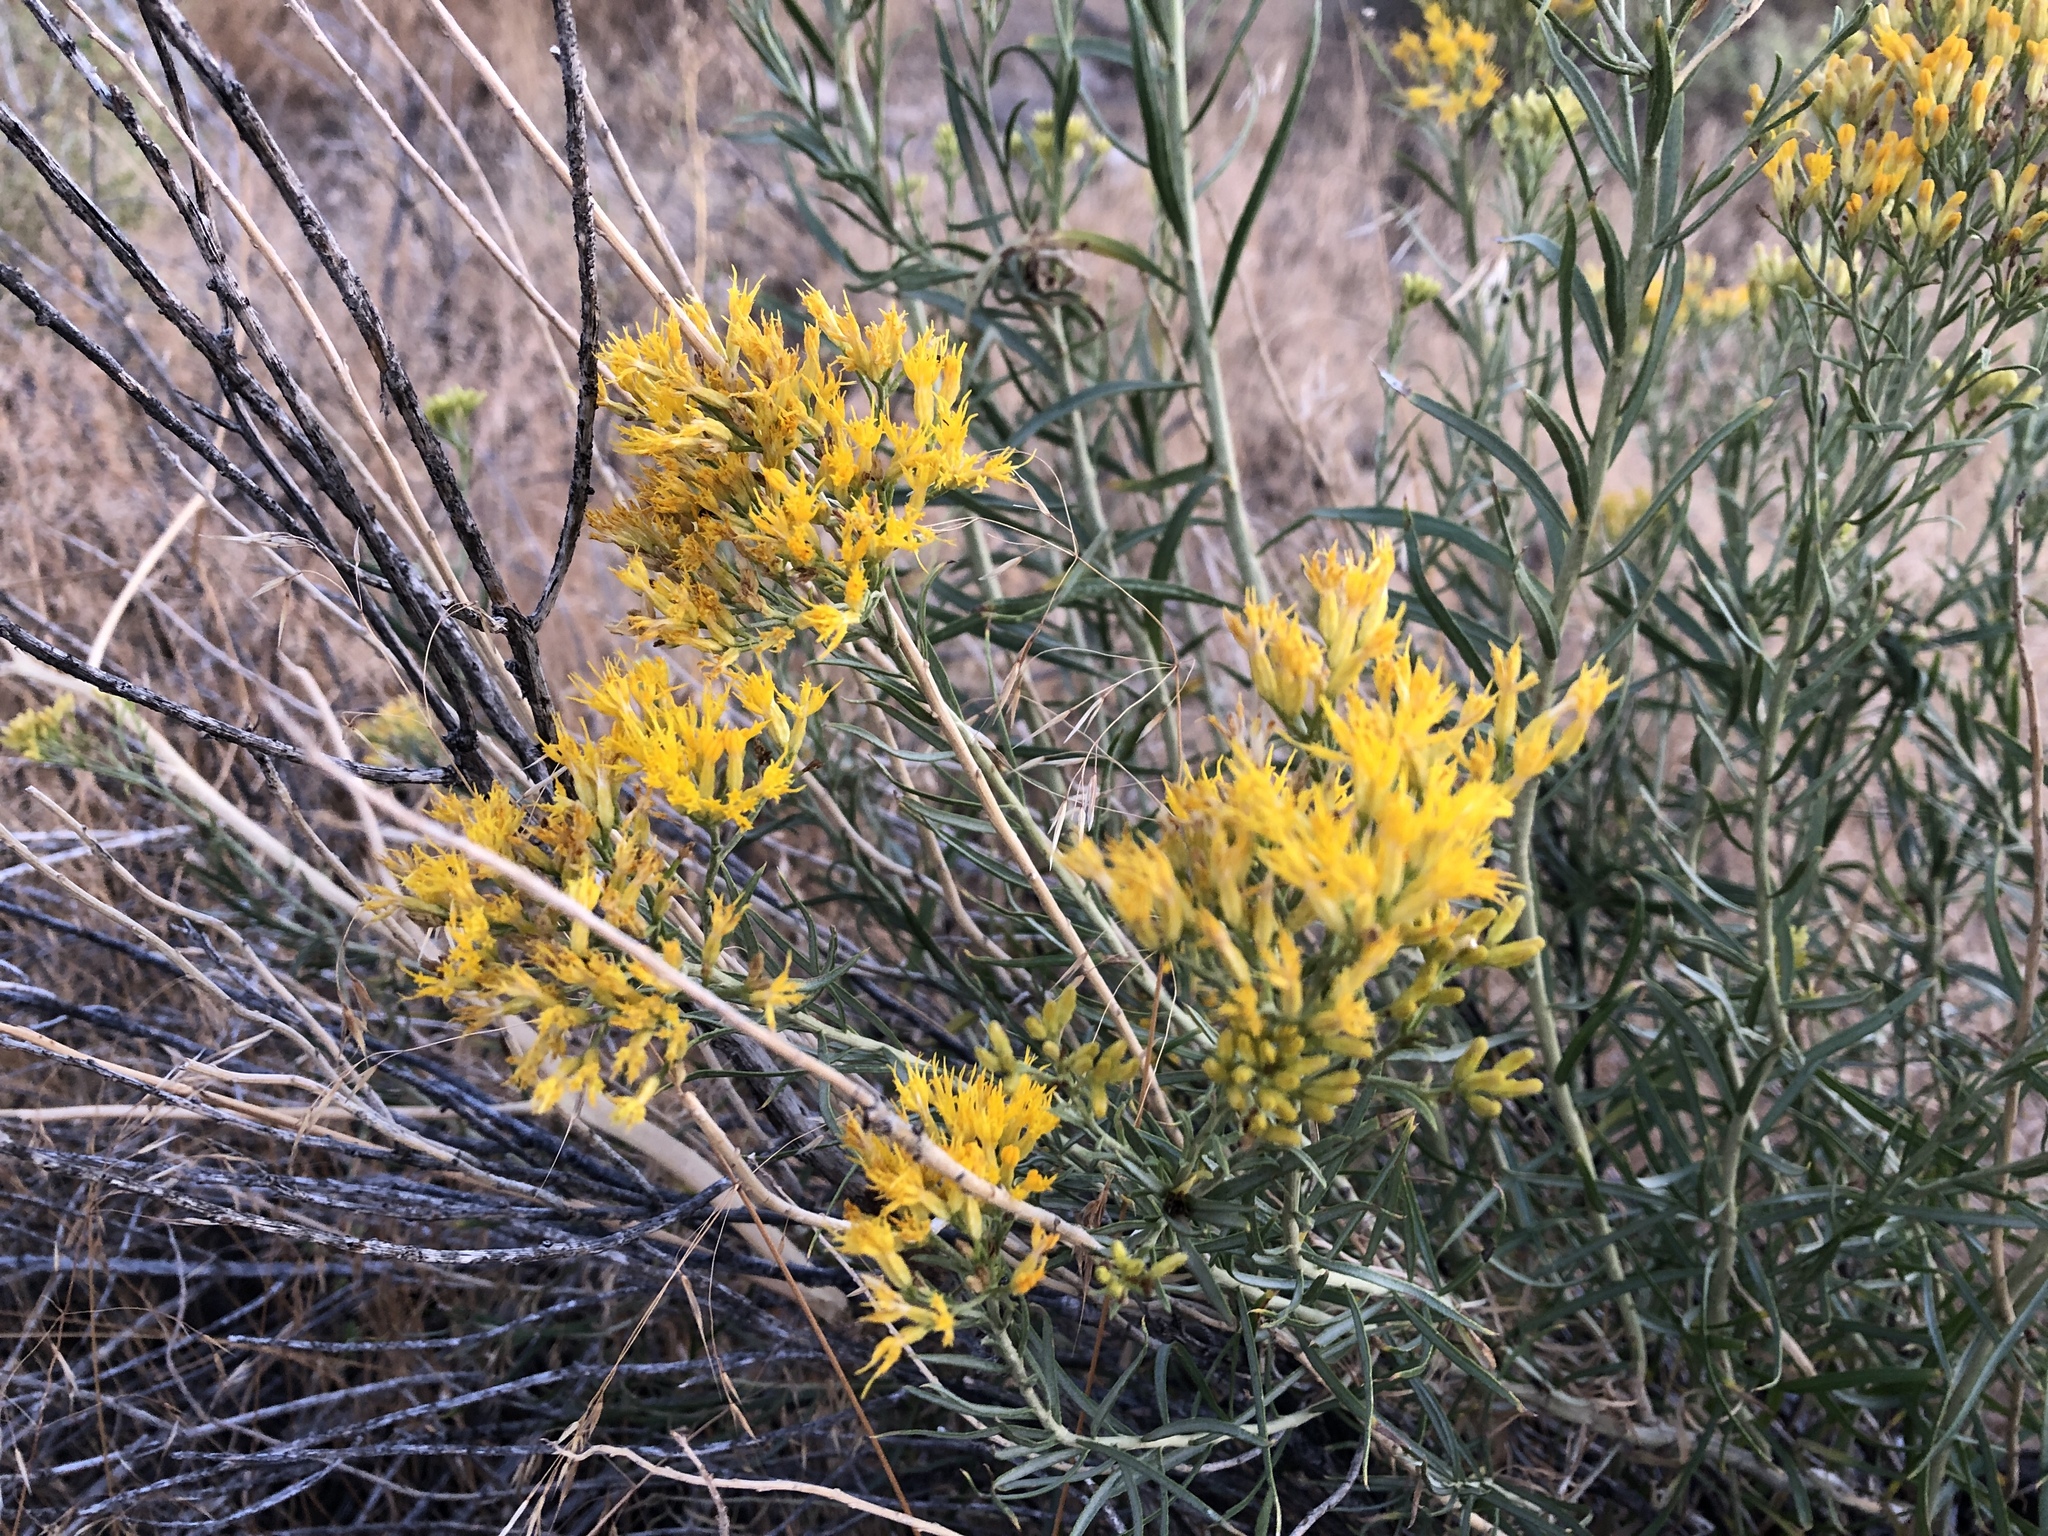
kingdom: Plantae
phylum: Tracheophyta
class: Magnoliopsida
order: Asterales
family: Asteraceae
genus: Chrysothamnus
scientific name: Chrysothamnus viscidiflorus
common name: Yellow rabbitbrush
